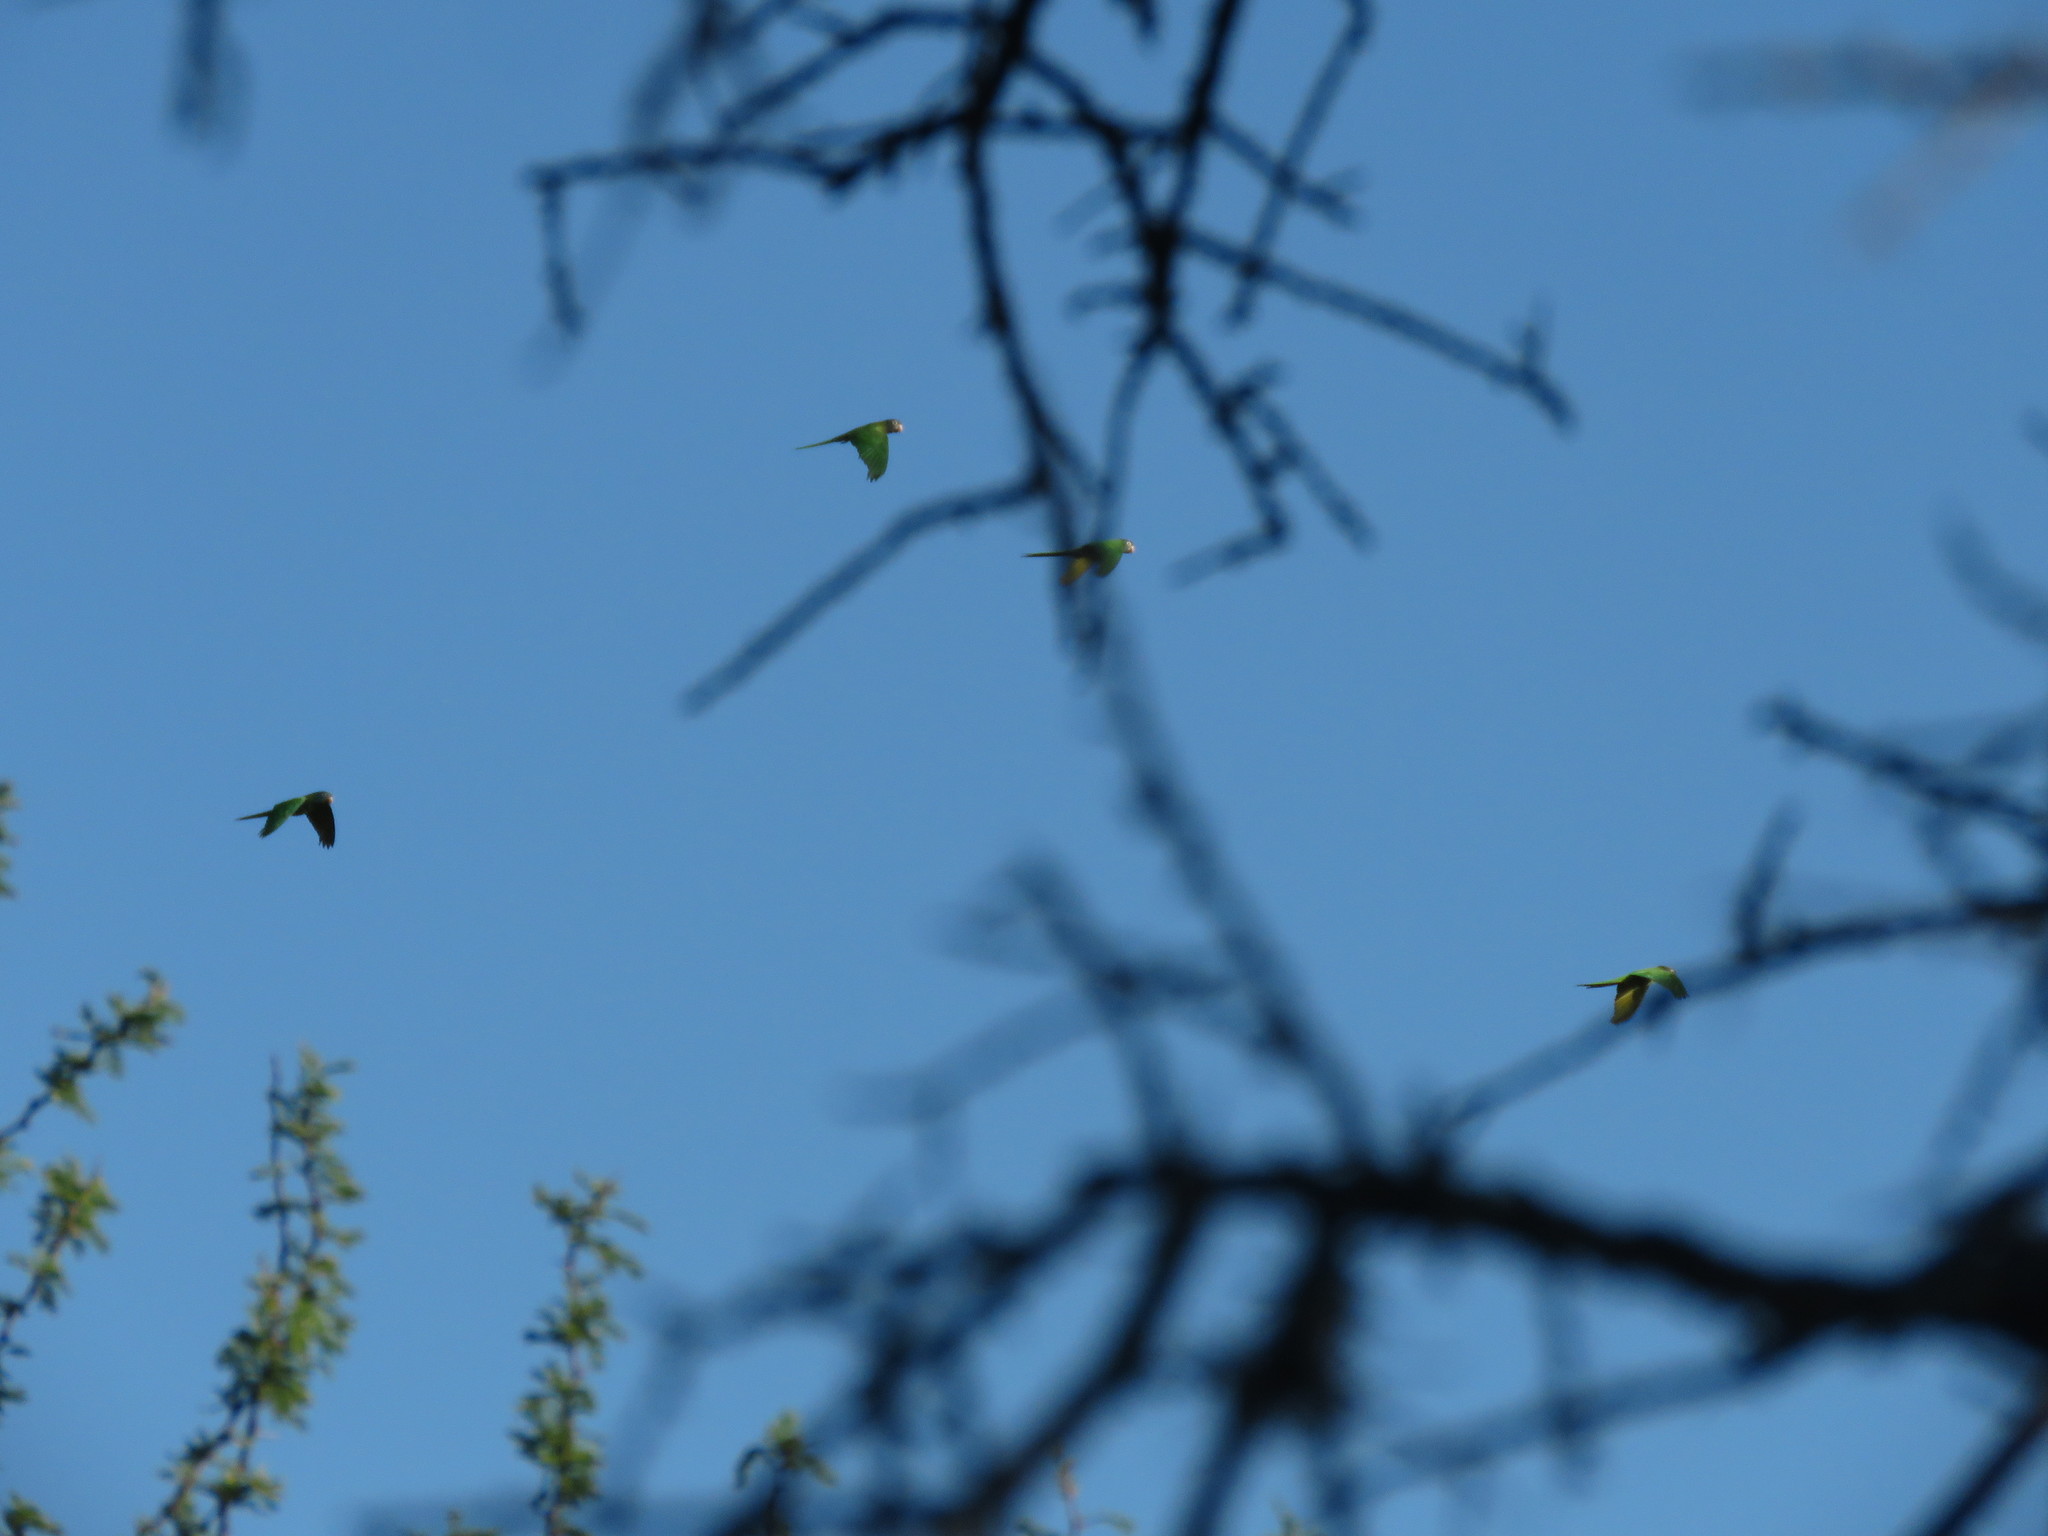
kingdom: Animalia
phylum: Chordata
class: Aves
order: Psittaciformes
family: Psittacidae
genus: Aratinga
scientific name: Aratinga acuticaudata
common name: Blue-crowned parakeet
